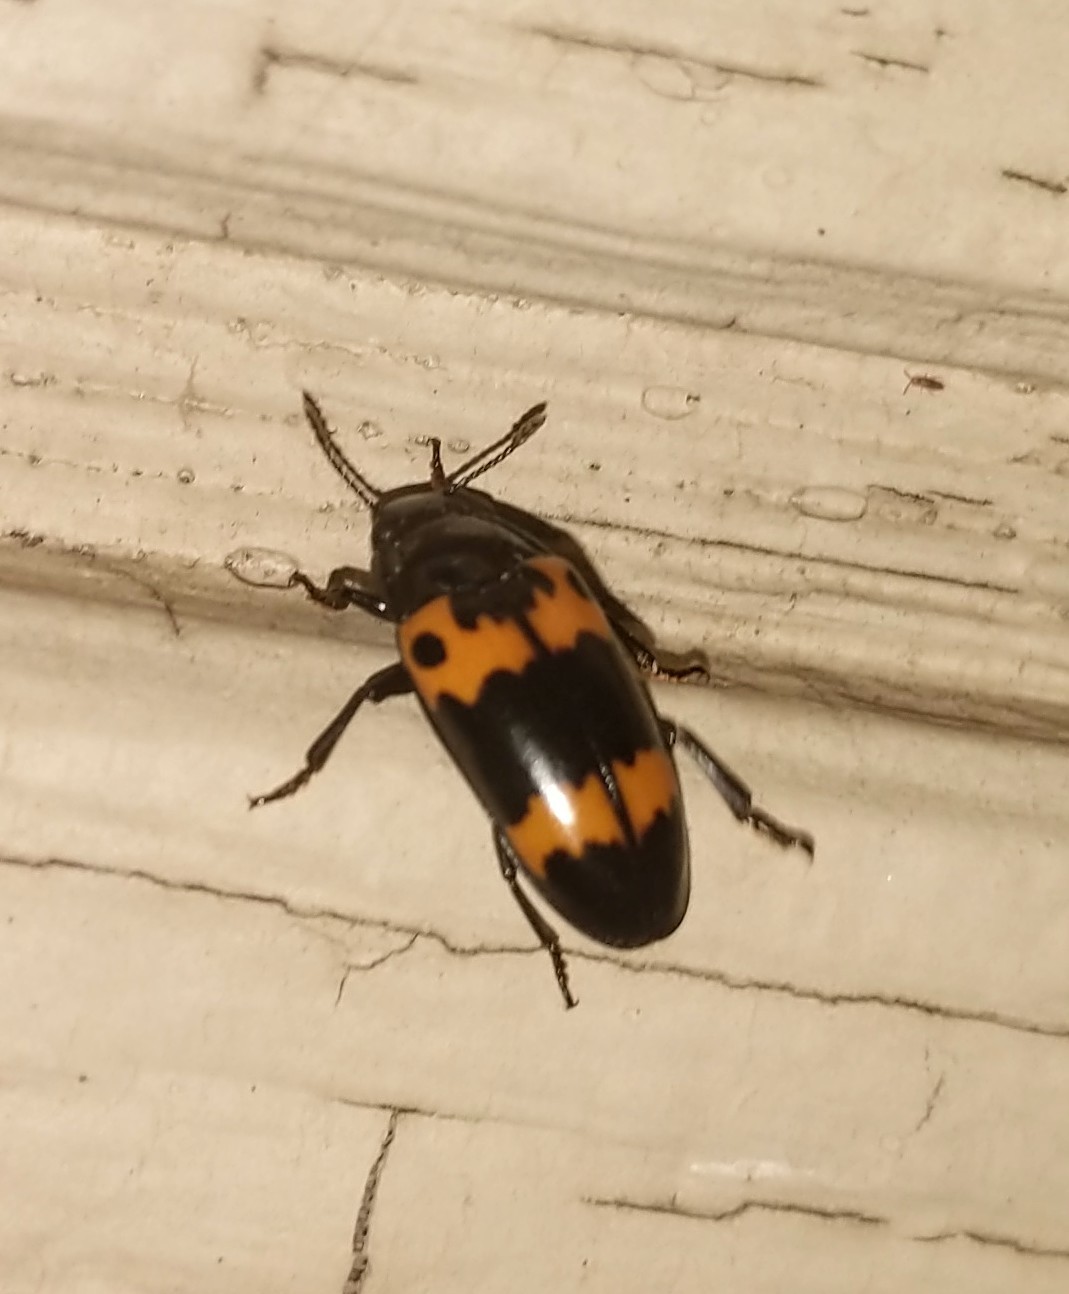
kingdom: Animalia
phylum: Arthropoda
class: Insecta
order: Coleoptera
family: Erotylidae
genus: Megalodacne
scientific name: Megalodacne fasciata
